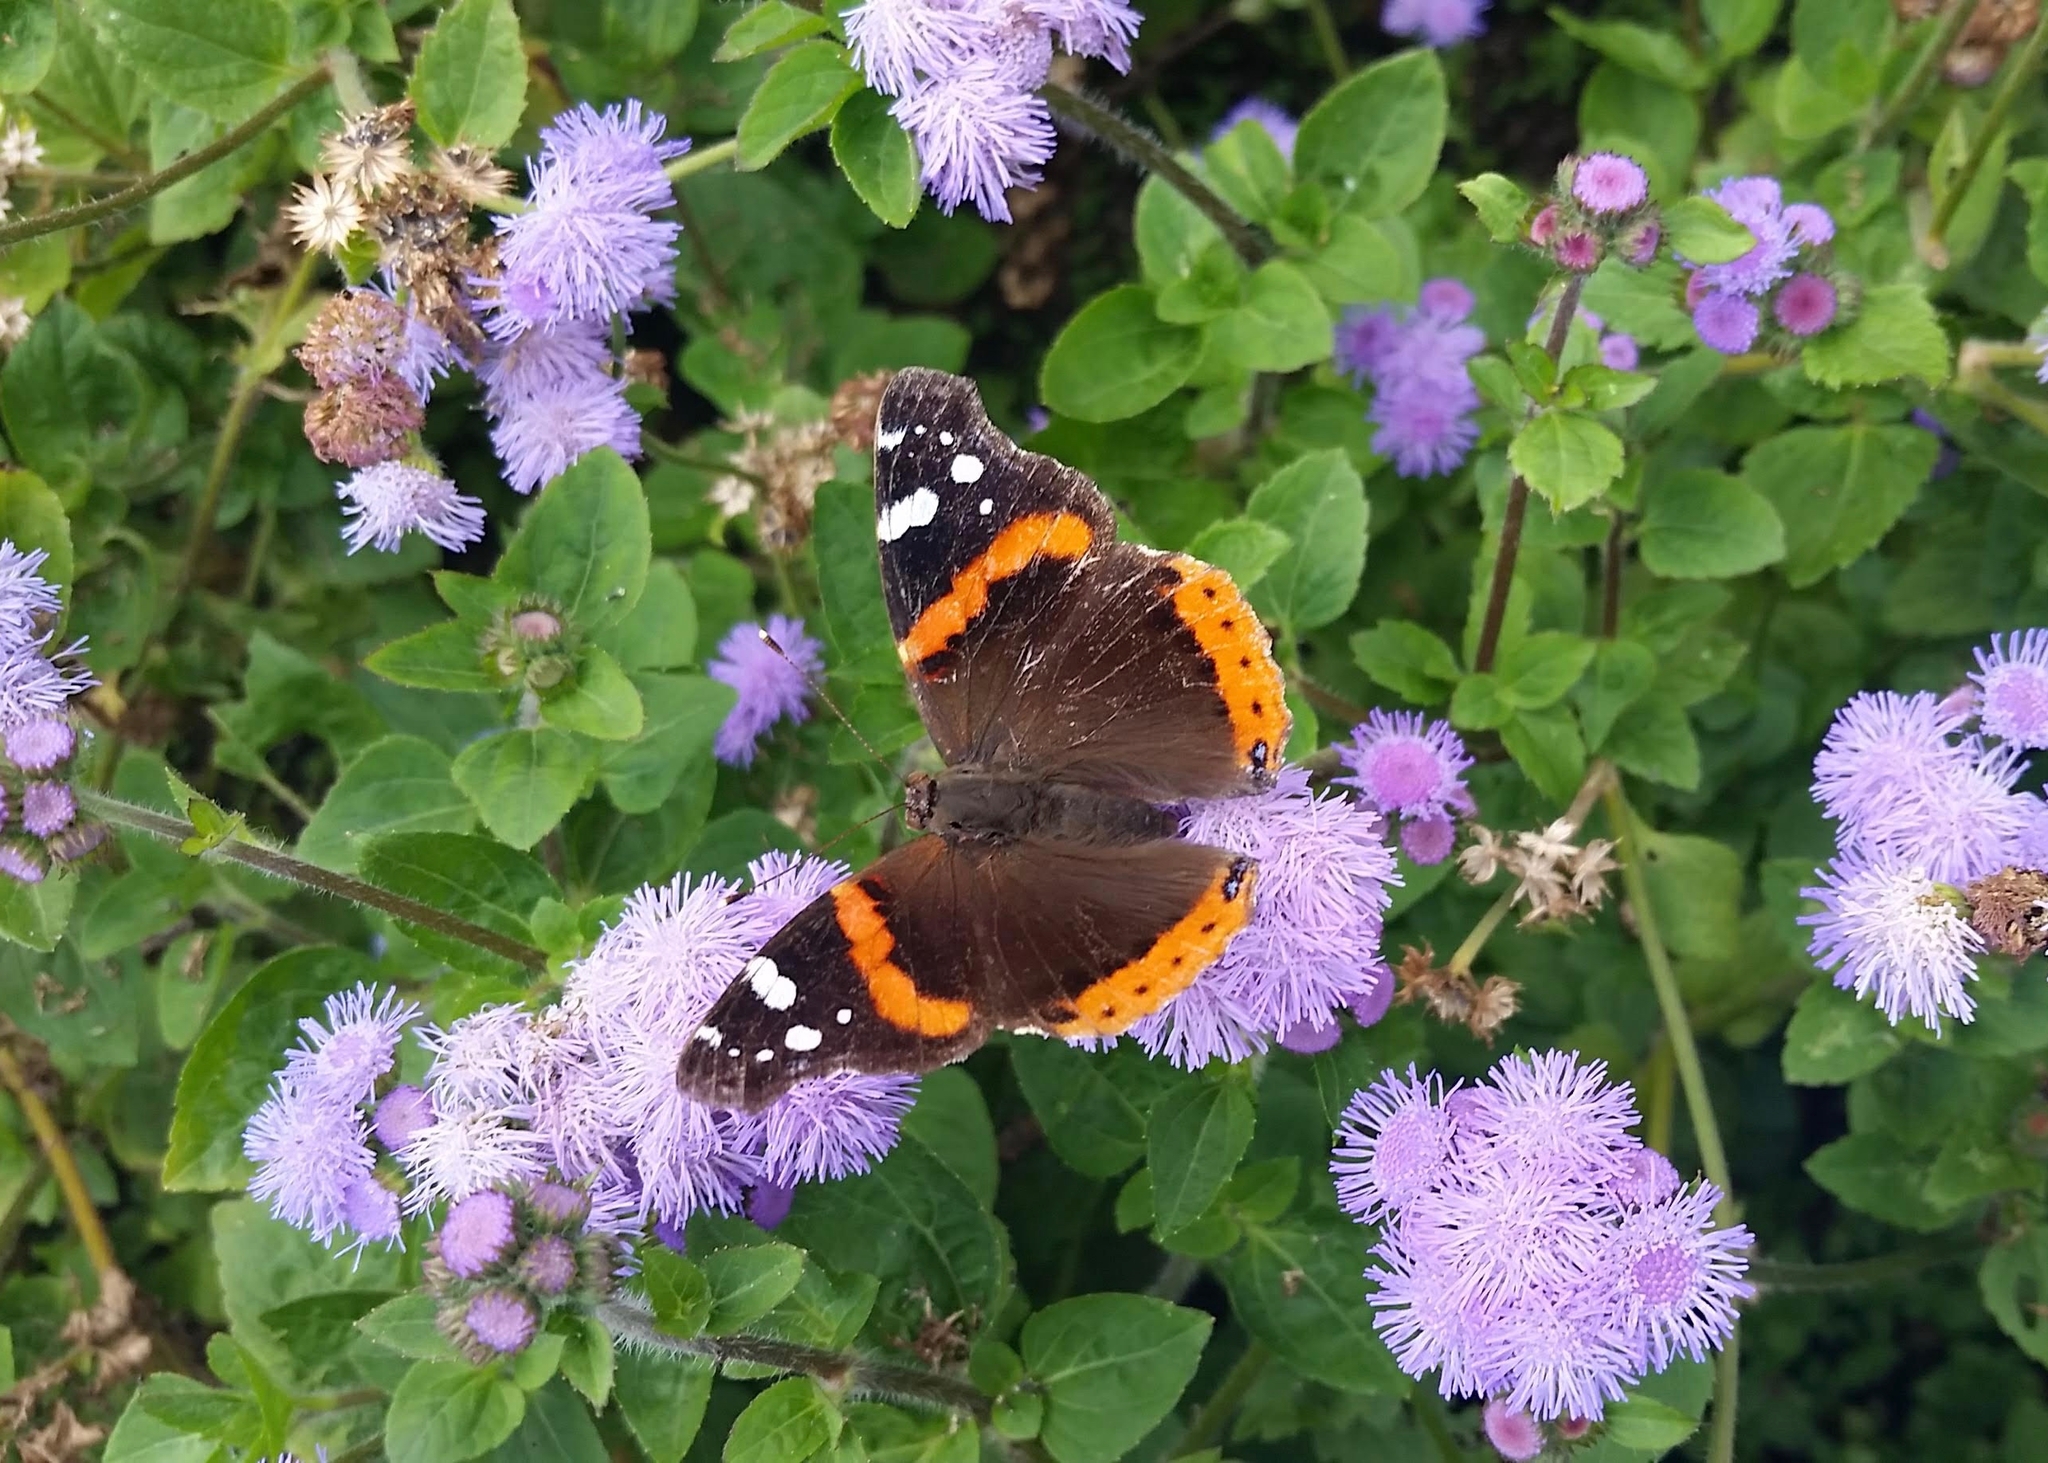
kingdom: Animalia
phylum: Arthropoda
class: Insecta
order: Lepidoptera
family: Nymphalidae
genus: Vanessa
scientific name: Vanessa atalanta
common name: Red admiral
